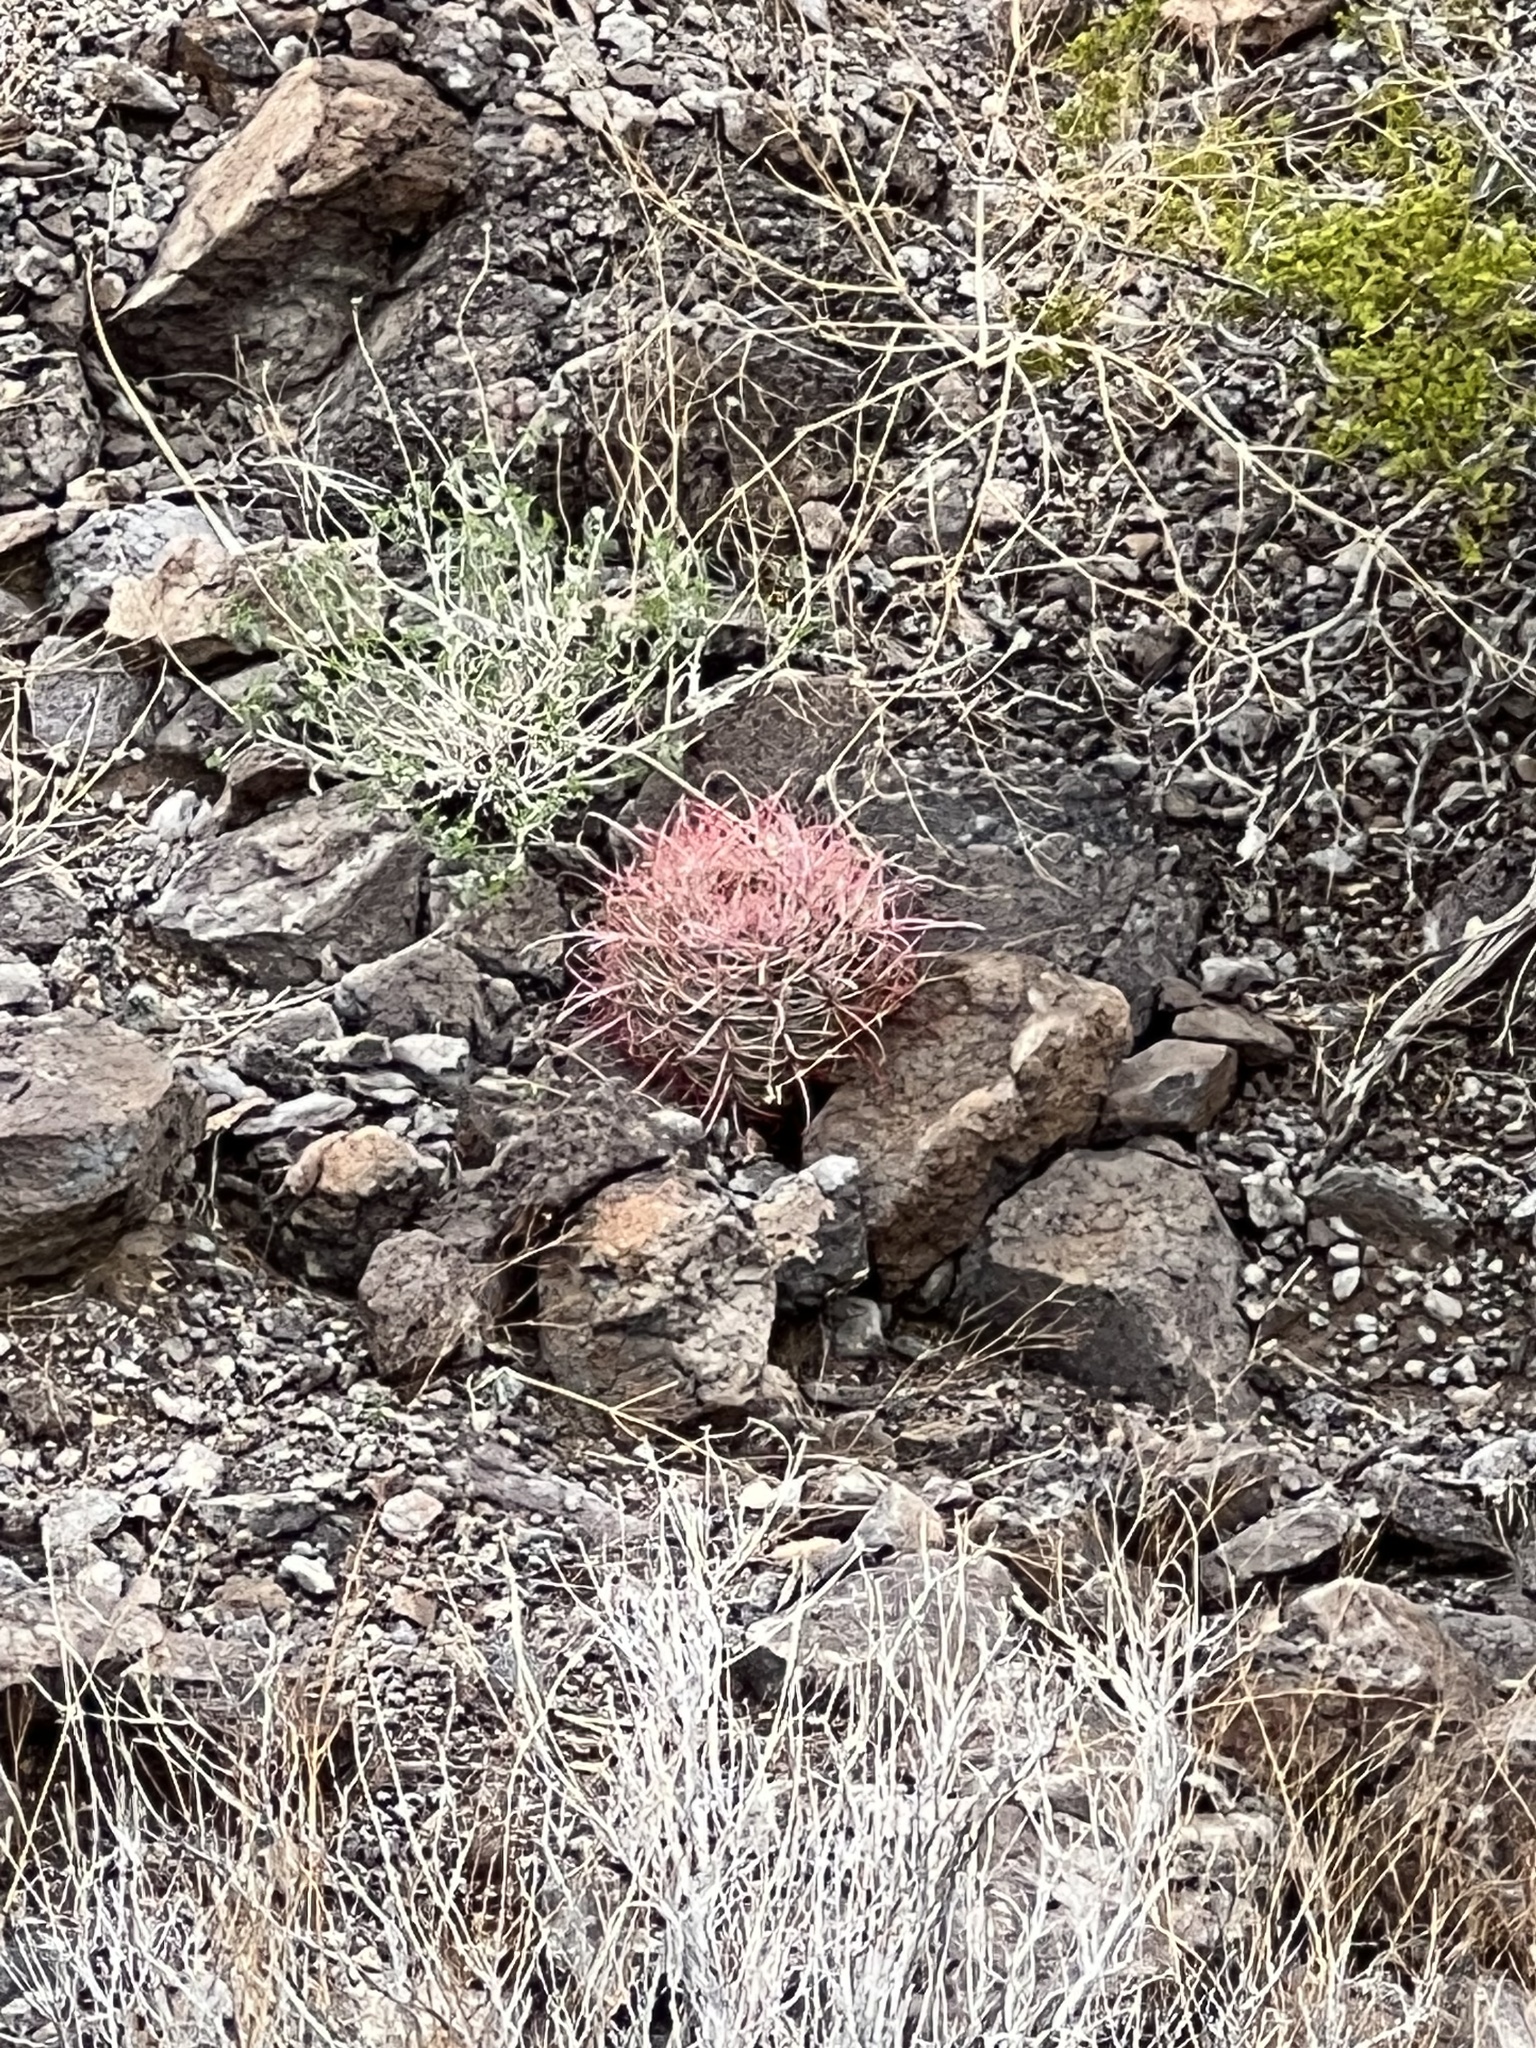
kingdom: Plantae
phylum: Tracheophyta
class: Magnoliopsida
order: Caryophyllales
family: Cactaceae
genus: Ferocactus
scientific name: Ferocactus cylindraceus
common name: California barrel cactus
